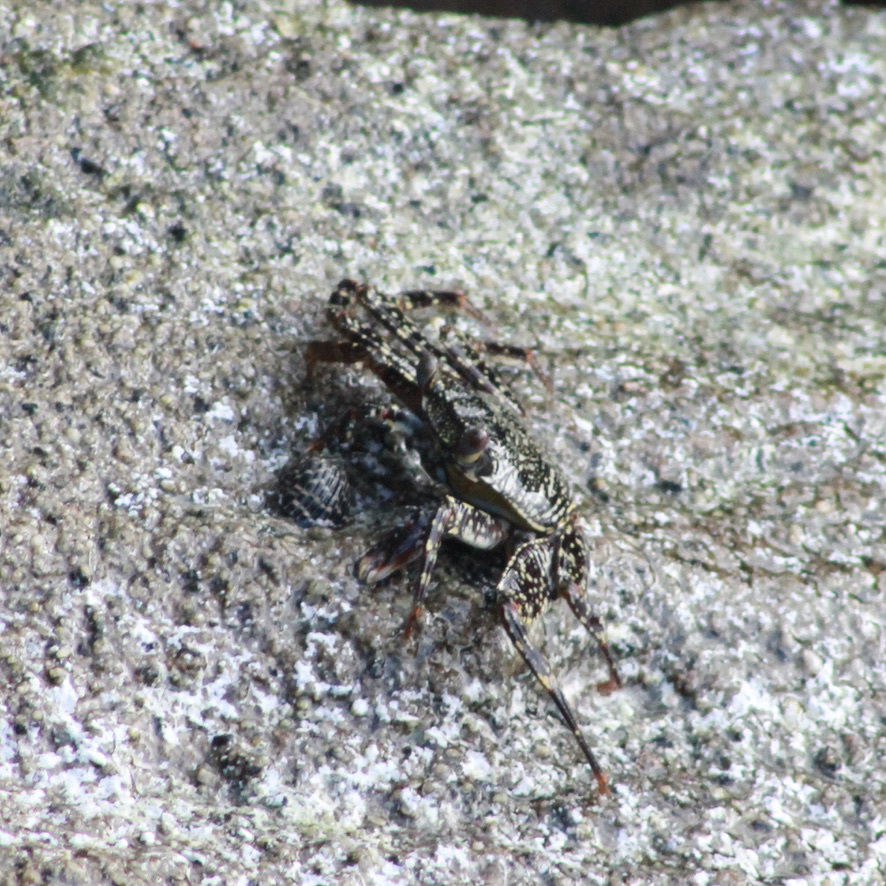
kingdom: Animalia
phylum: Arthropoda
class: Malacostraca
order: Decapoda
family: Grapsidae
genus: Grapsus
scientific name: Grapsus grapsus
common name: Sally lightfoot
